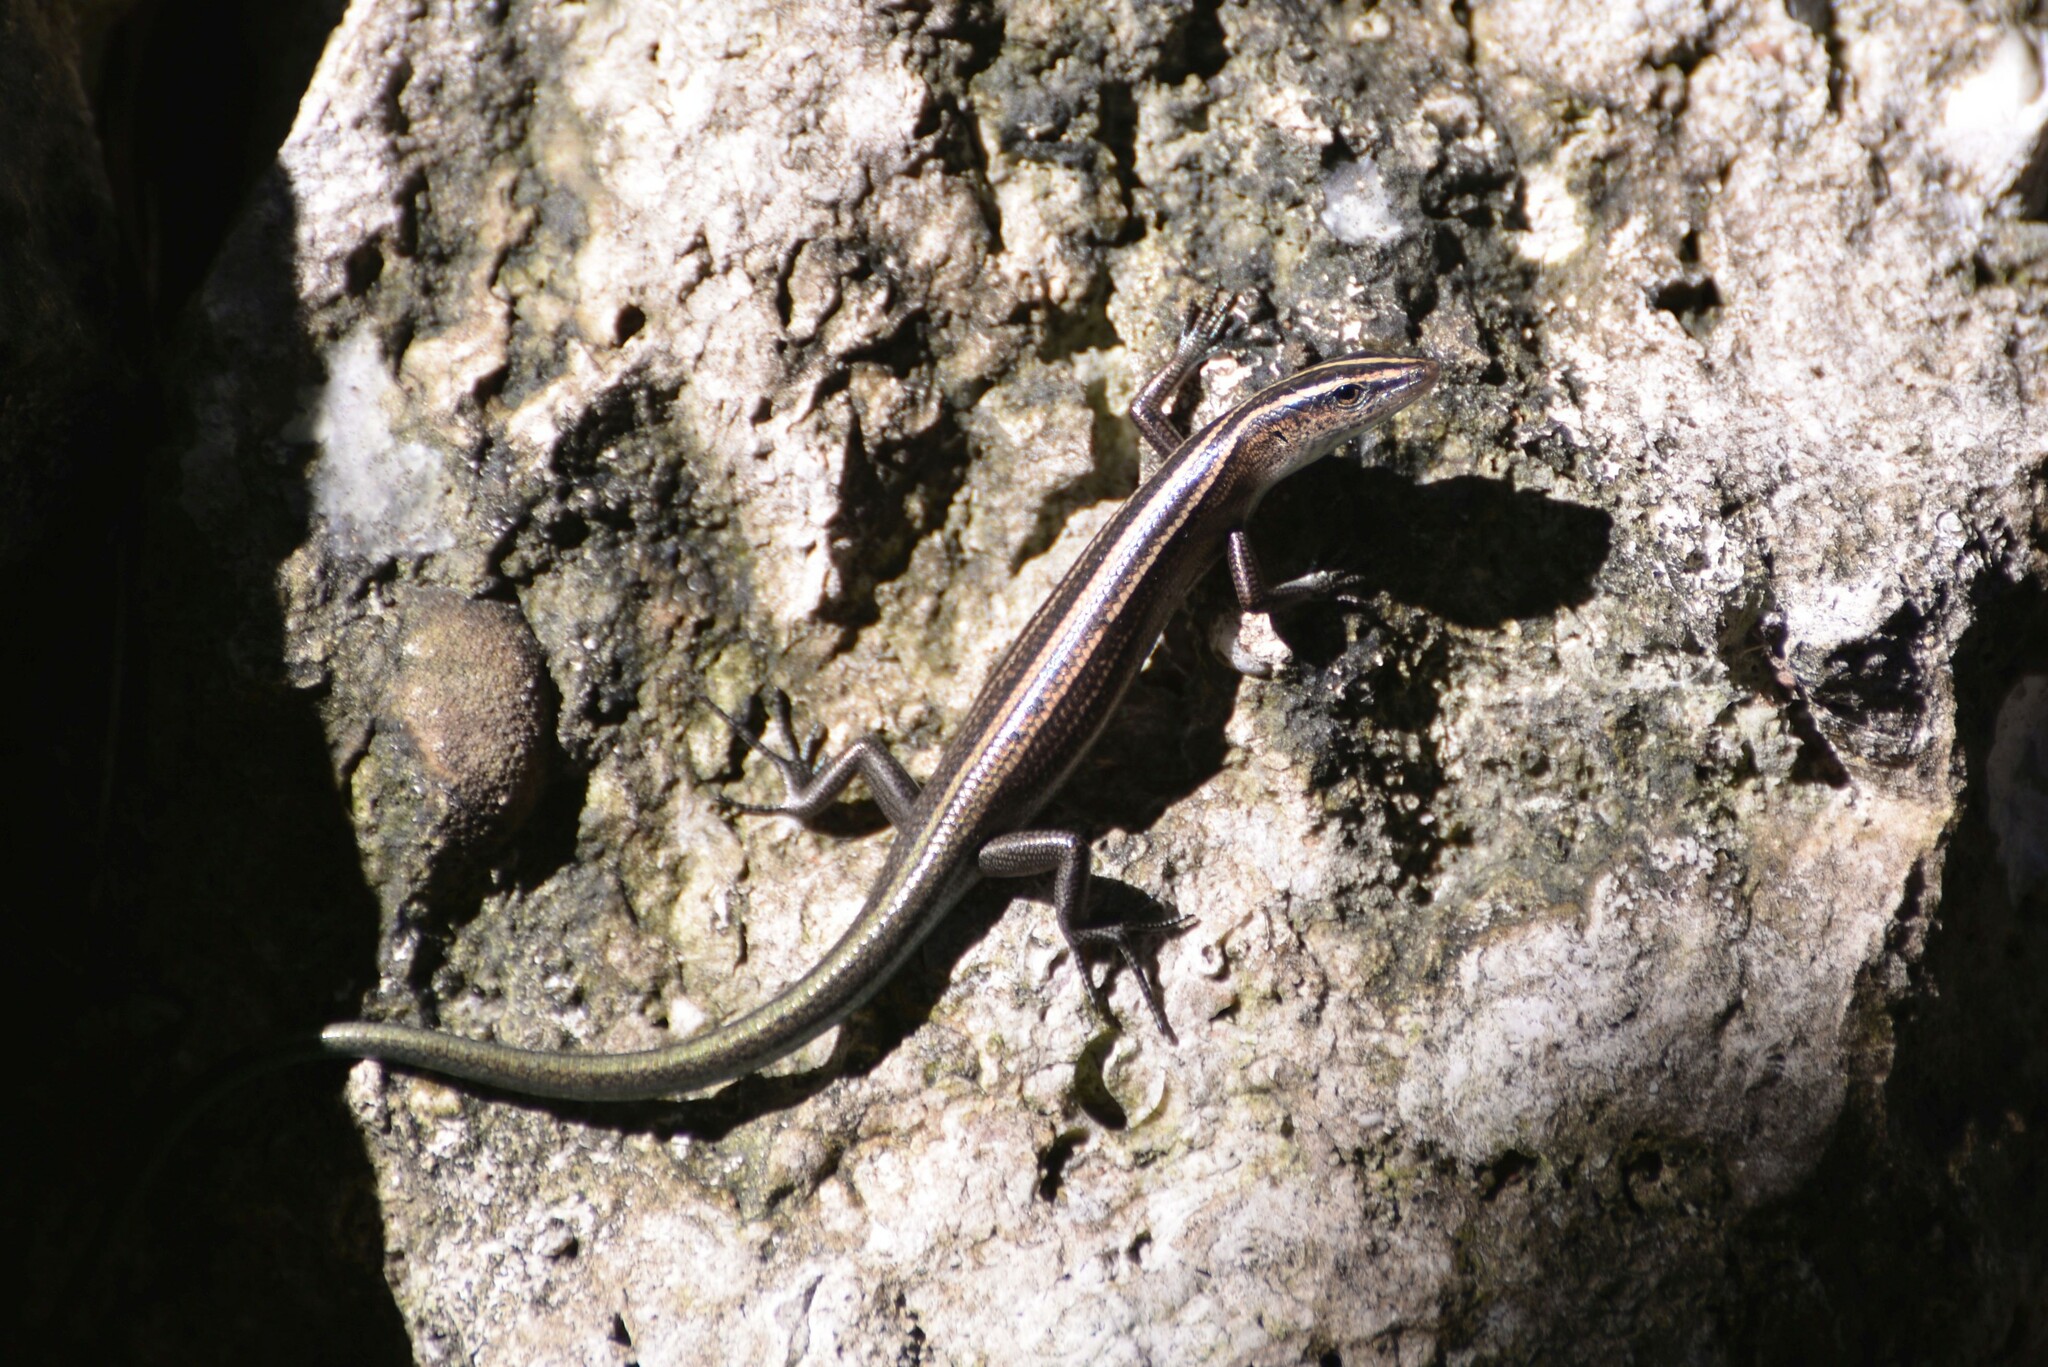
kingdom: Animalia
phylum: Chordata
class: Squamata
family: Scincidae
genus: Emoia
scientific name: Emoia cyanura
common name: Copper-tailed skink
